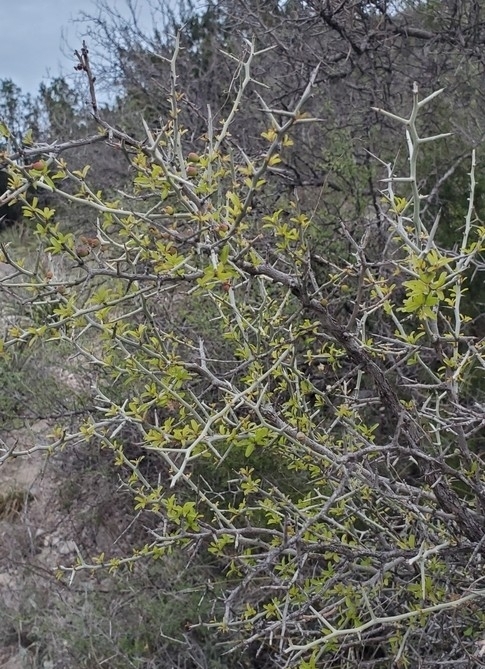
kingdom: Plantae
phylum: Tracheophyta
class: Magnoliopsida
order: Rosales
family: Rhamnaceae
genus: Sarcomphalus
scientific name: Sarcomphalus obtusifolius
